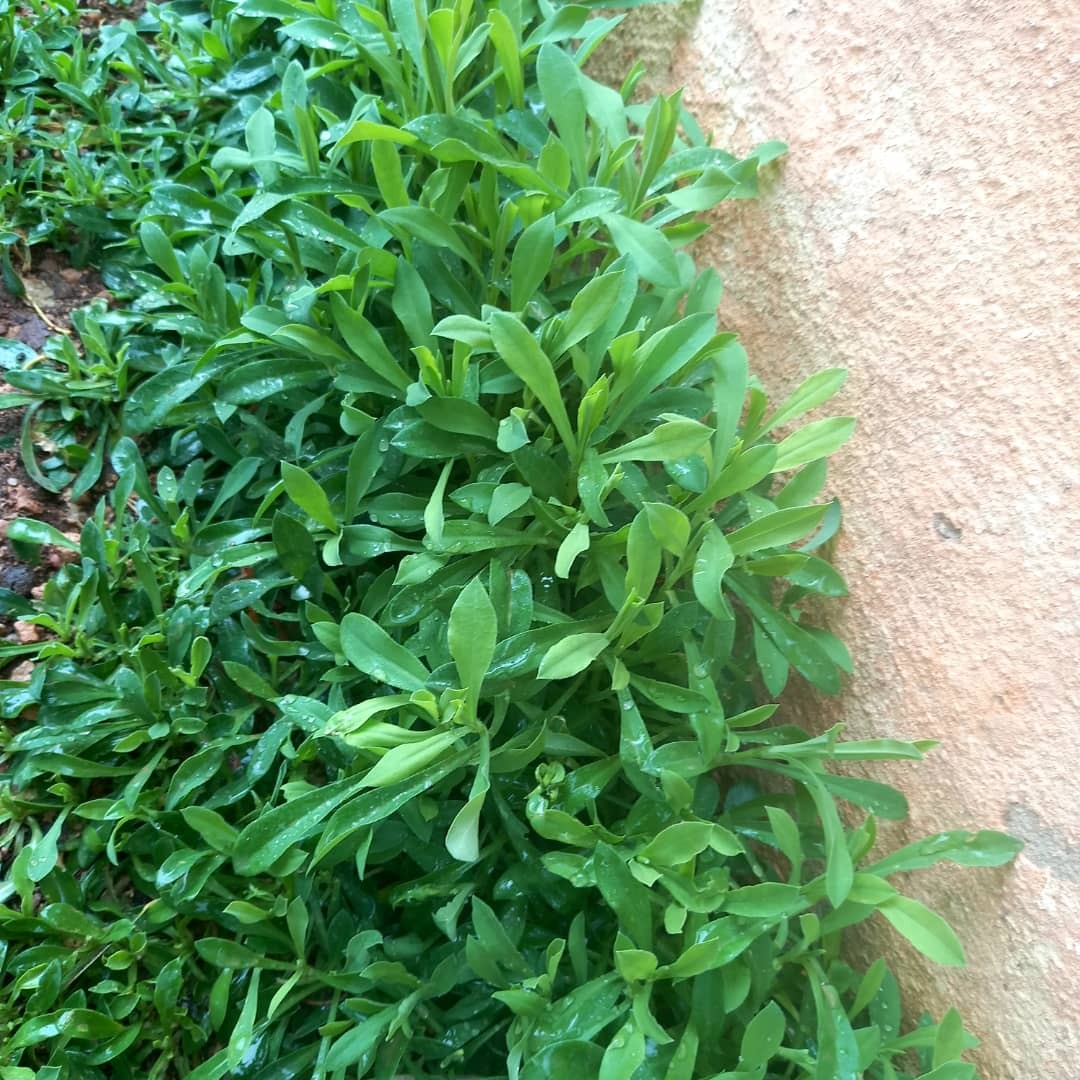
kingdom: Plantae
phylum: Tracheophyta
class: Magnoliopsida
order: Caryophyllales
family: Caryophyllaceae
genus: Silene
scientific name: Silene vulgaris
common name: Bladder campion
